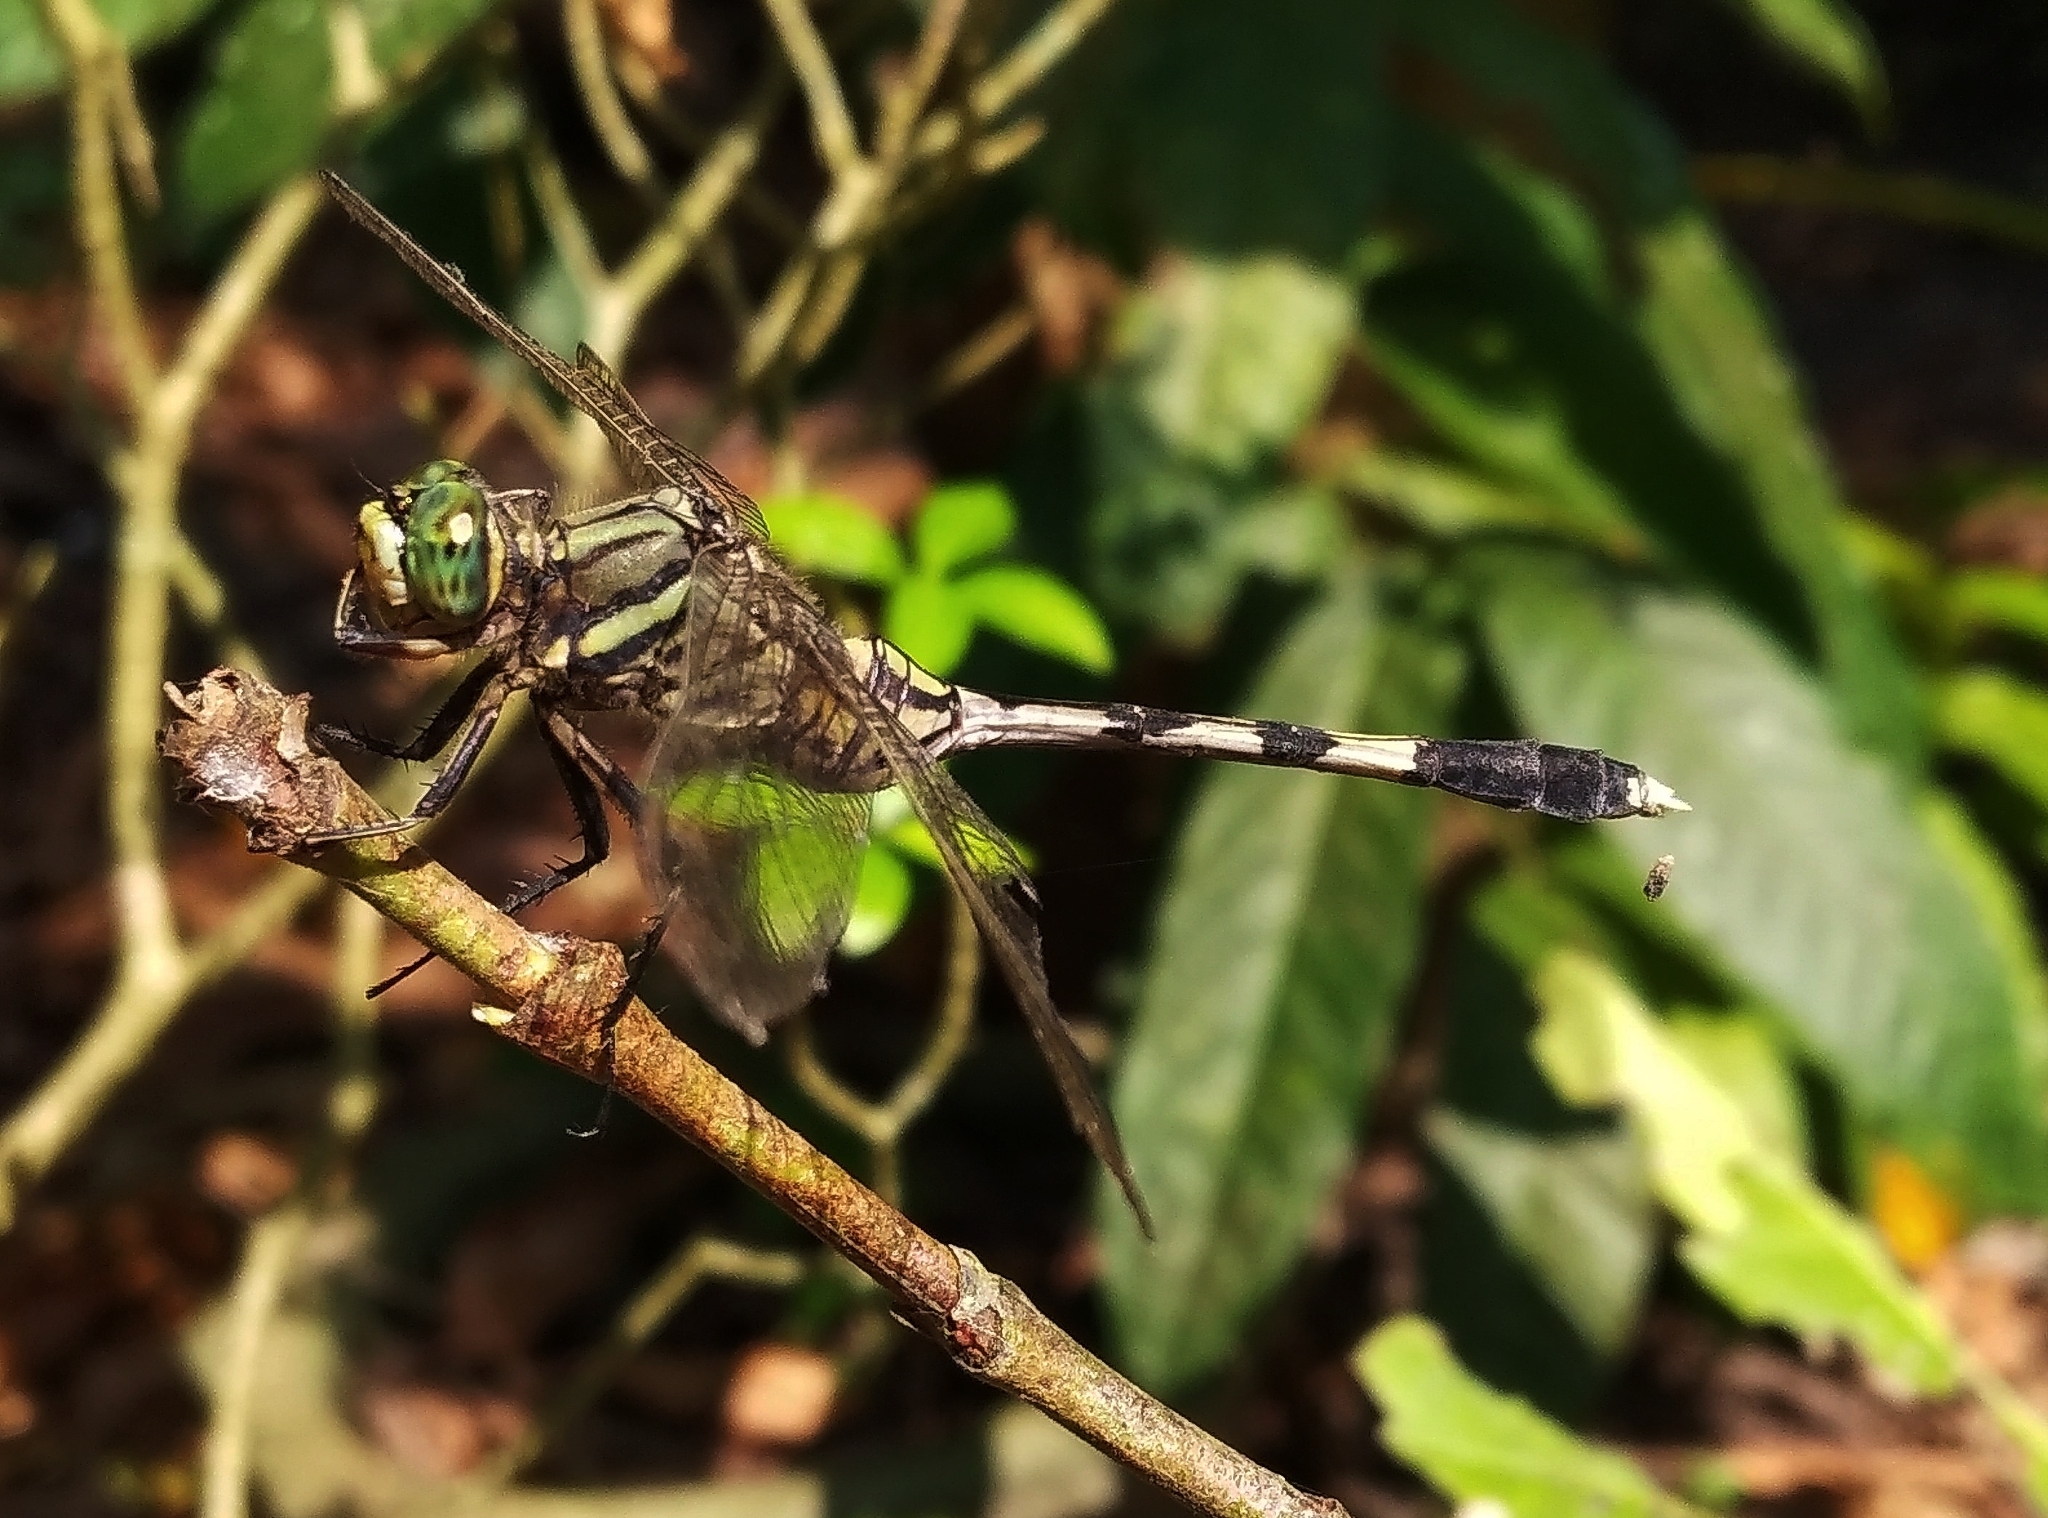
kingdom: Animalia
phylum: Arthropoda
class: Insecta
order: Odonata
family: Libellulidae
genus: Orthetrum
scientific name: Orthetrum sabina
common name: Slender skimmer
